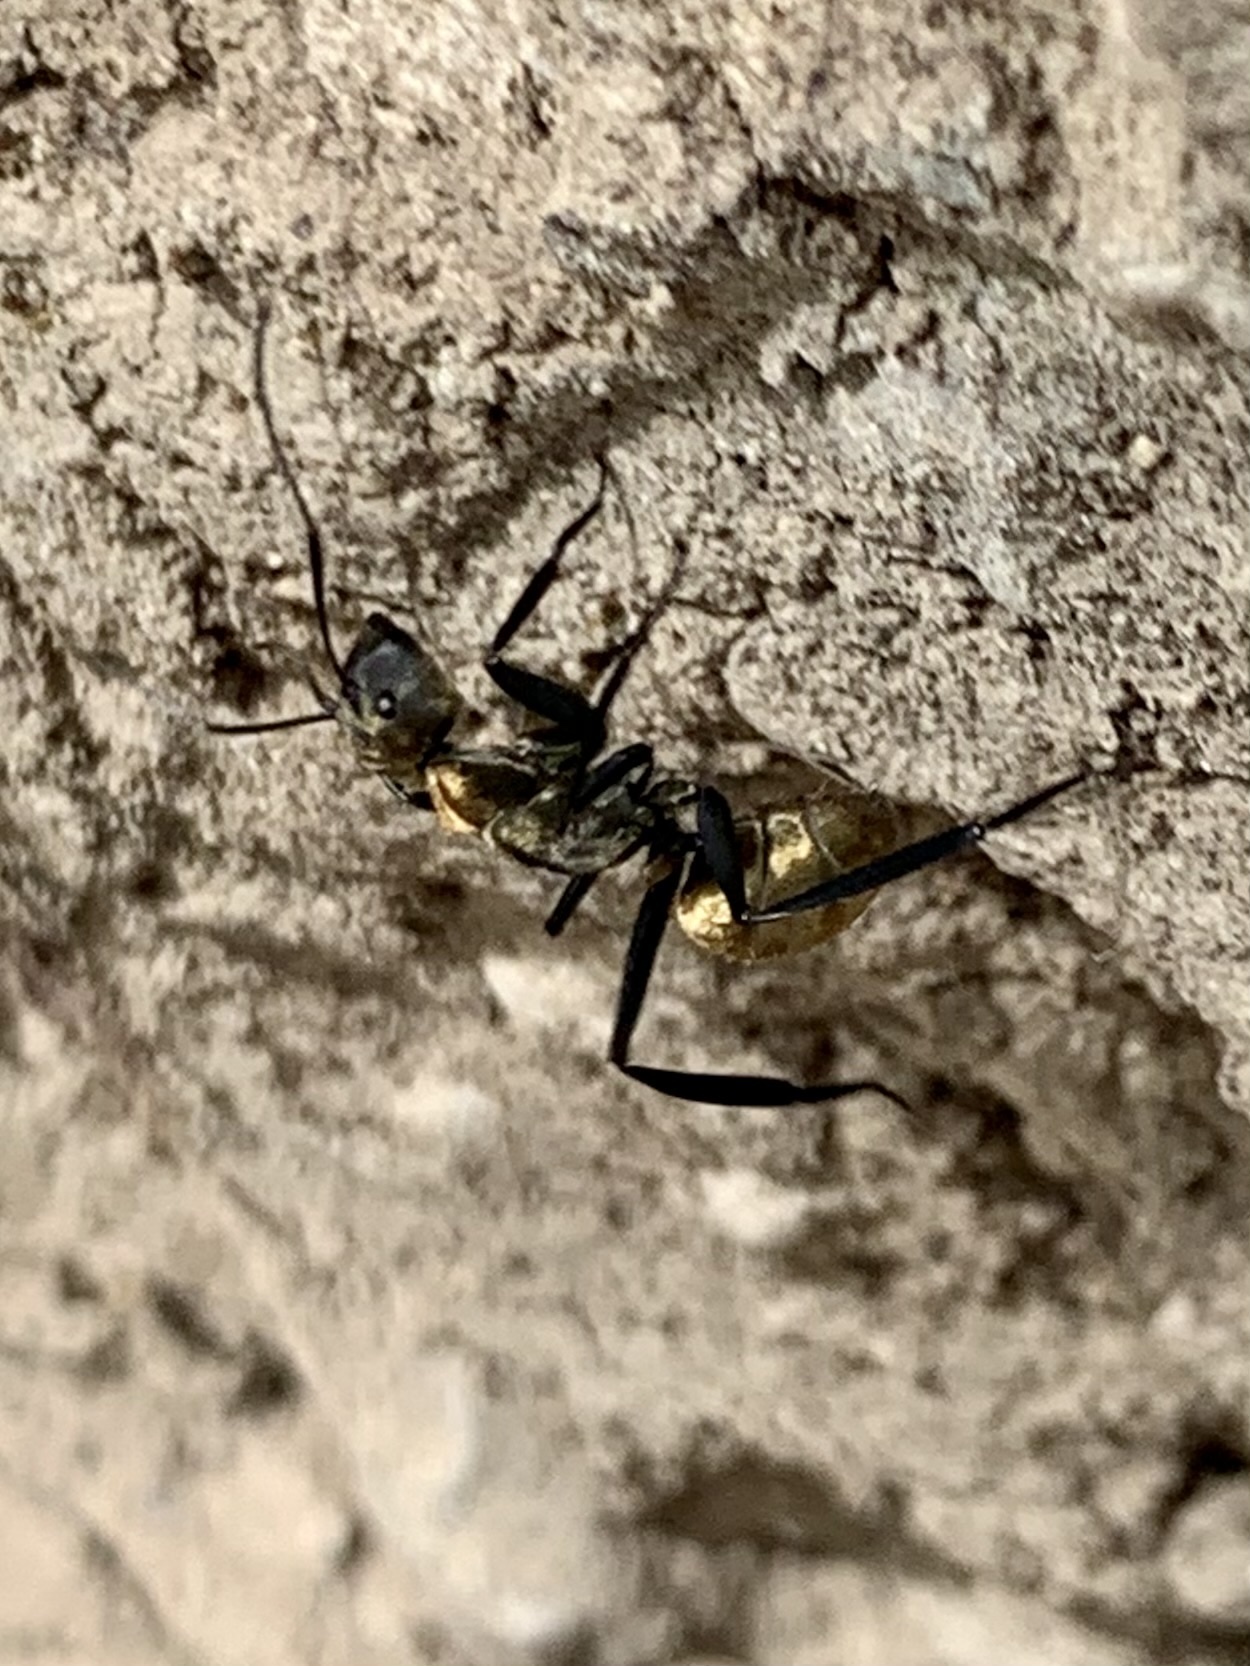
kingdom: Animalia
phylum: Arthropoda
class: Insecta
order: Hymenoptera
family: Formicidae
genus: Camponotus
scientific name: Camponotus sericeiventris
